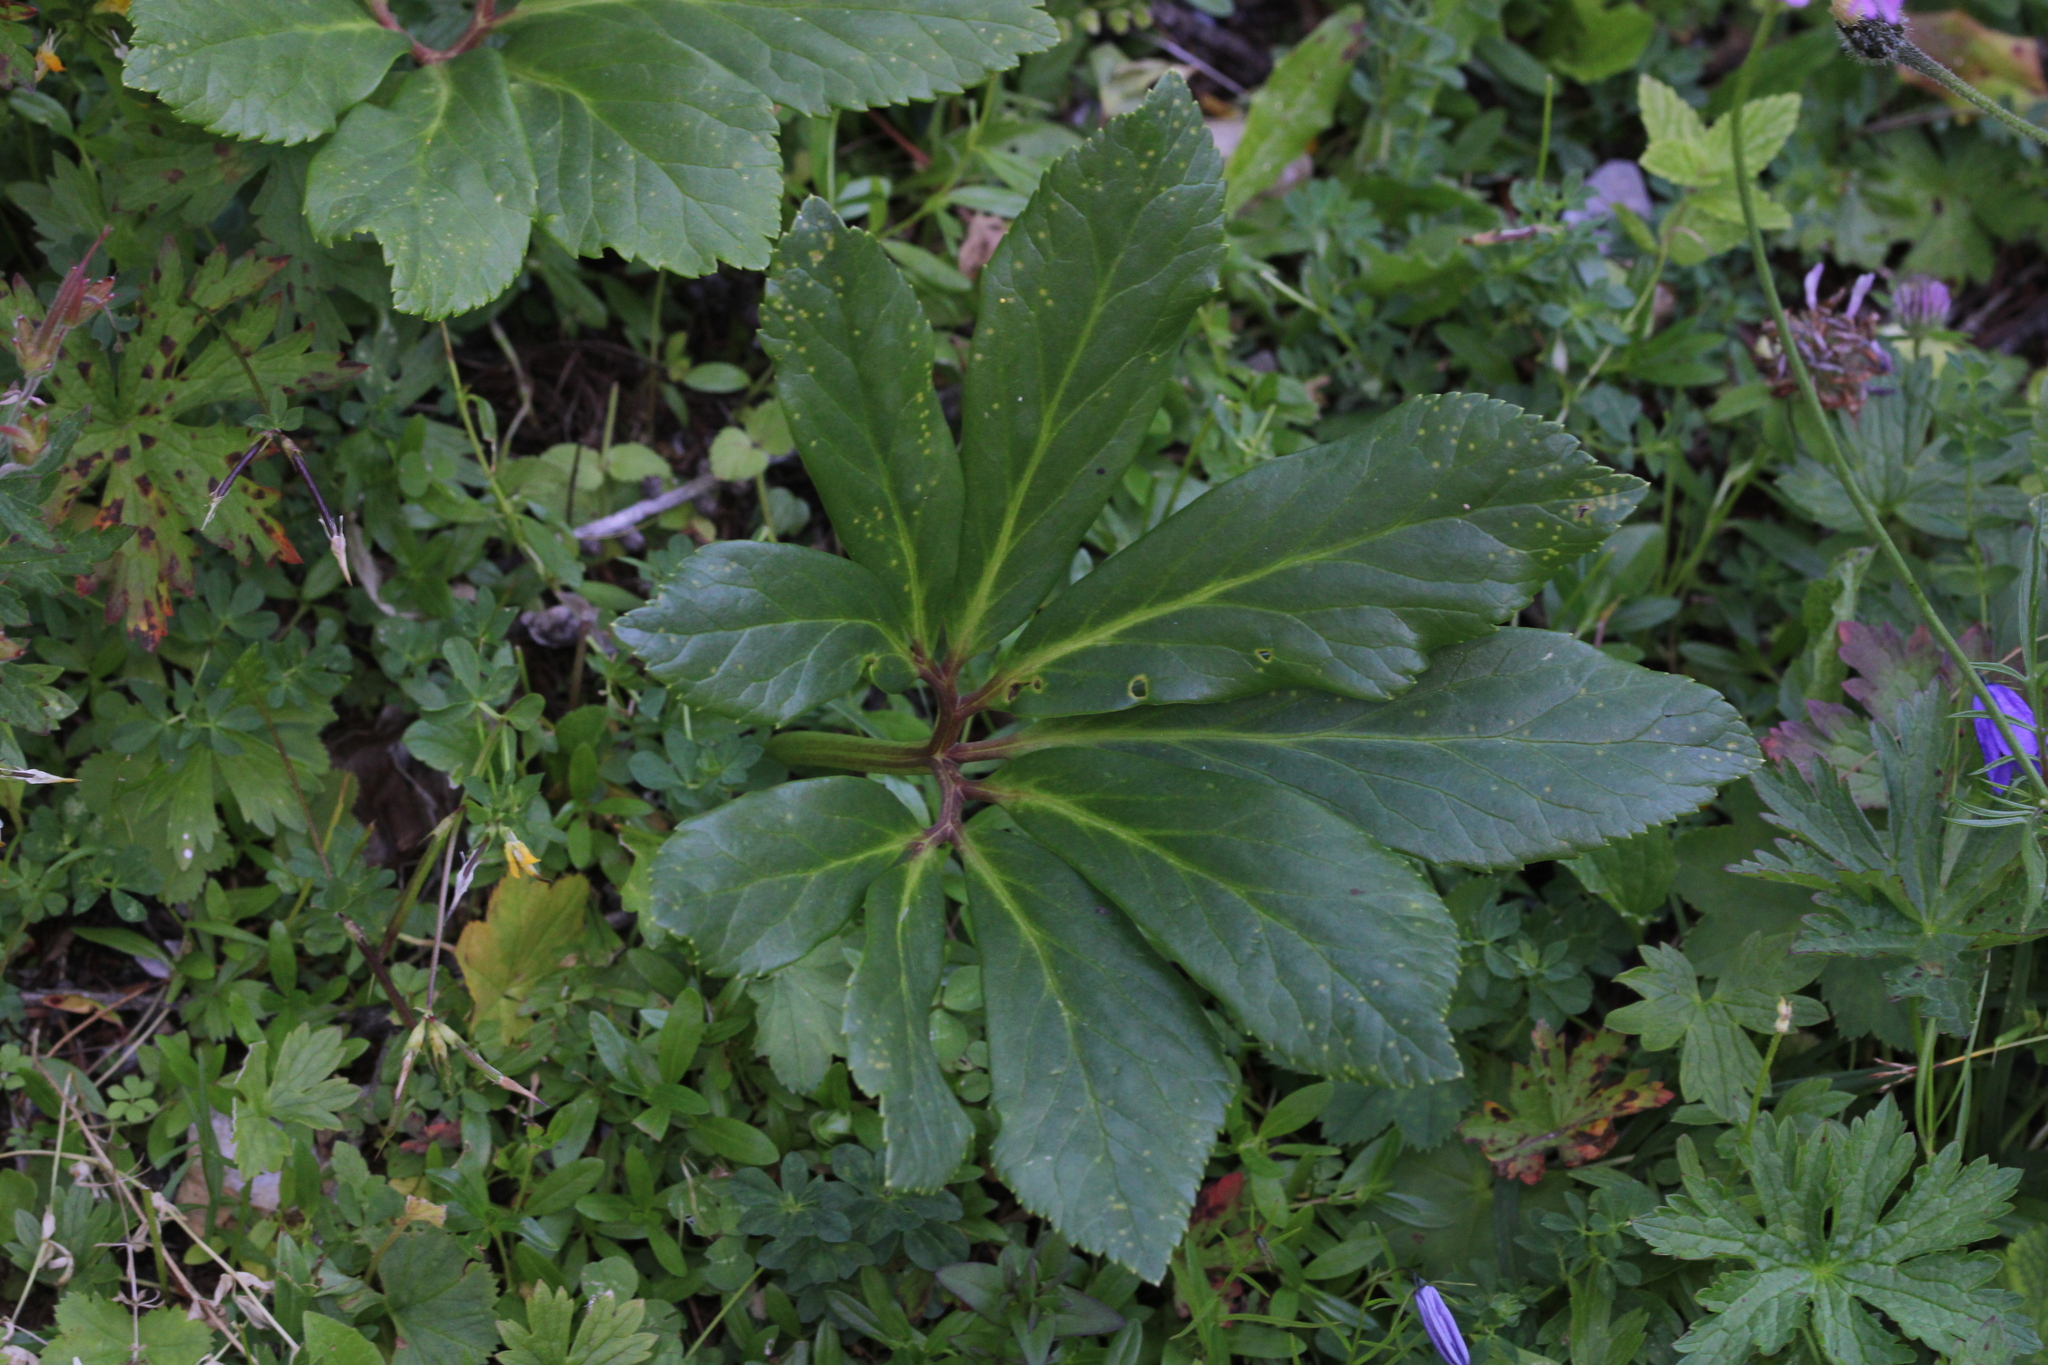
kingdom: Plantae
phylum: Tracheophyta
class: Magnoliopsida
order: Ranunculales
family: Ranunculaceae
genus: Helleborus
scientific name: Helleborus niger
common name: Black hellebore
